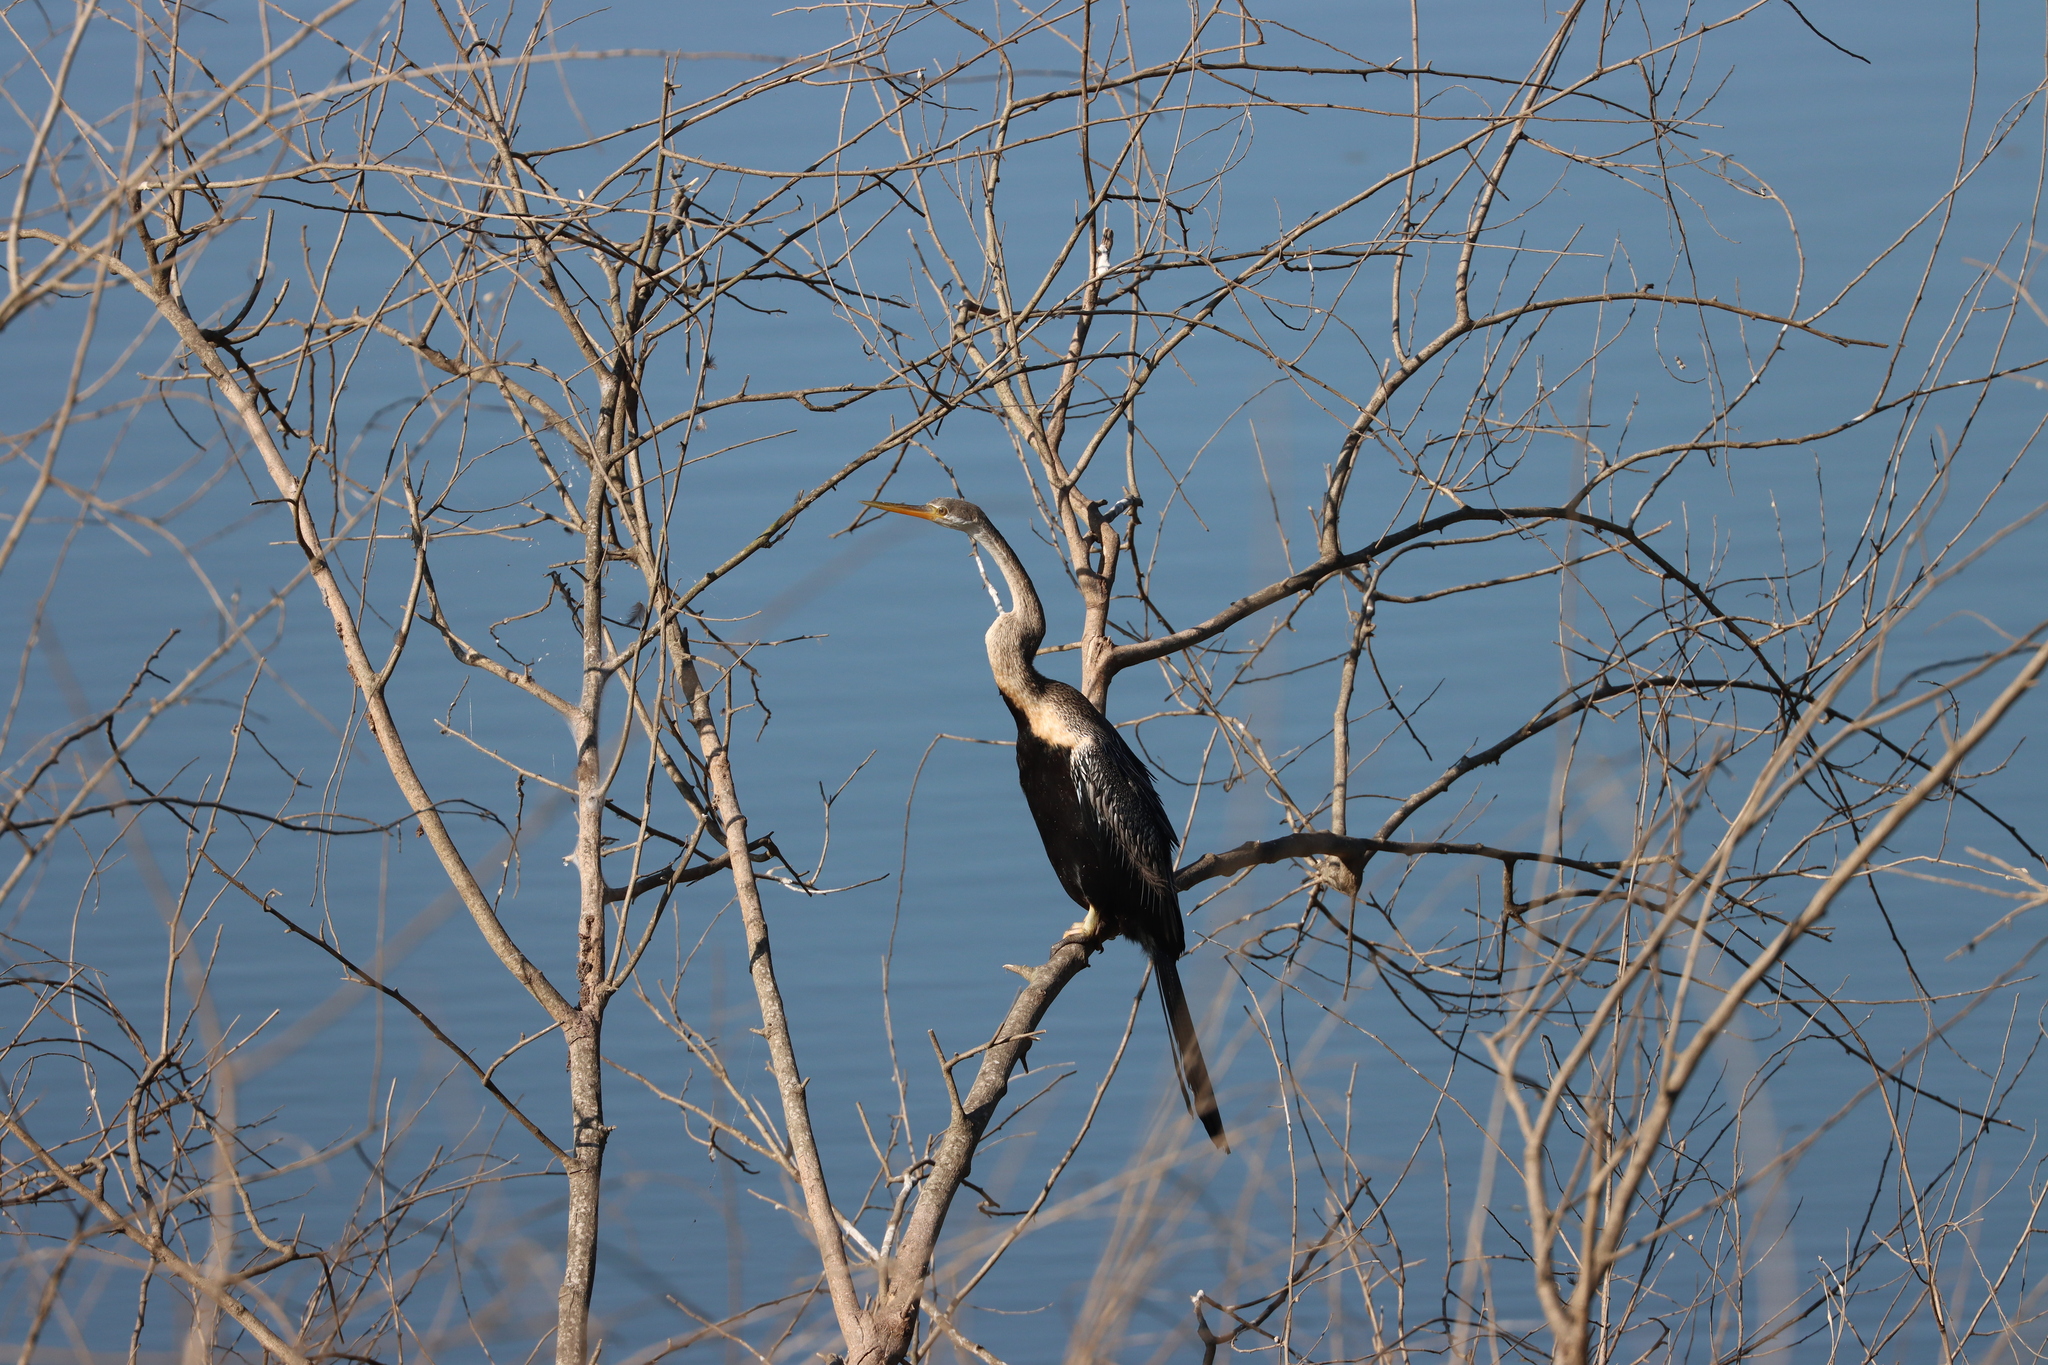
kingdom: Animalia
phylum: Chordata
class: Aves
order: Suliformes
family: Anhingidae
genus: Anhinga
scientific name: Anhinga melanogaster
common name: Oriental darter
